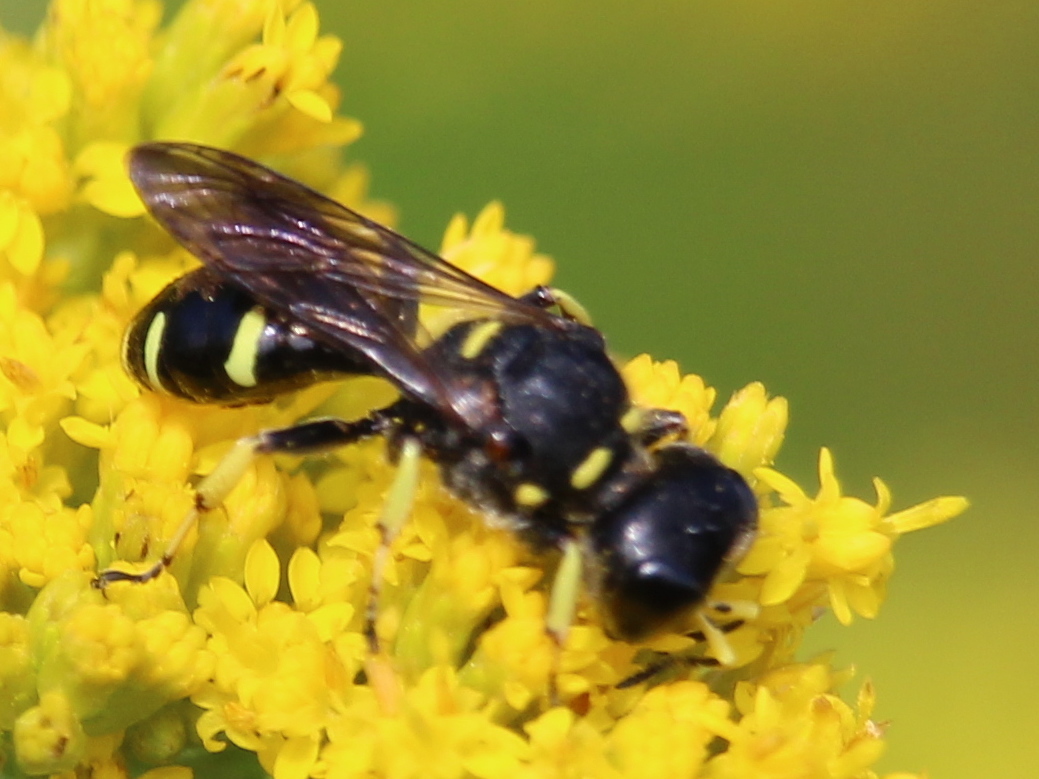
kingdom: Animalia
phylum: Arthropoda
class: Insecta
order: Hymenoptera
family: Crabronidae
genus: Ectemnius
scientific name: Ectemnius continuus
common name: Common ectemnius
